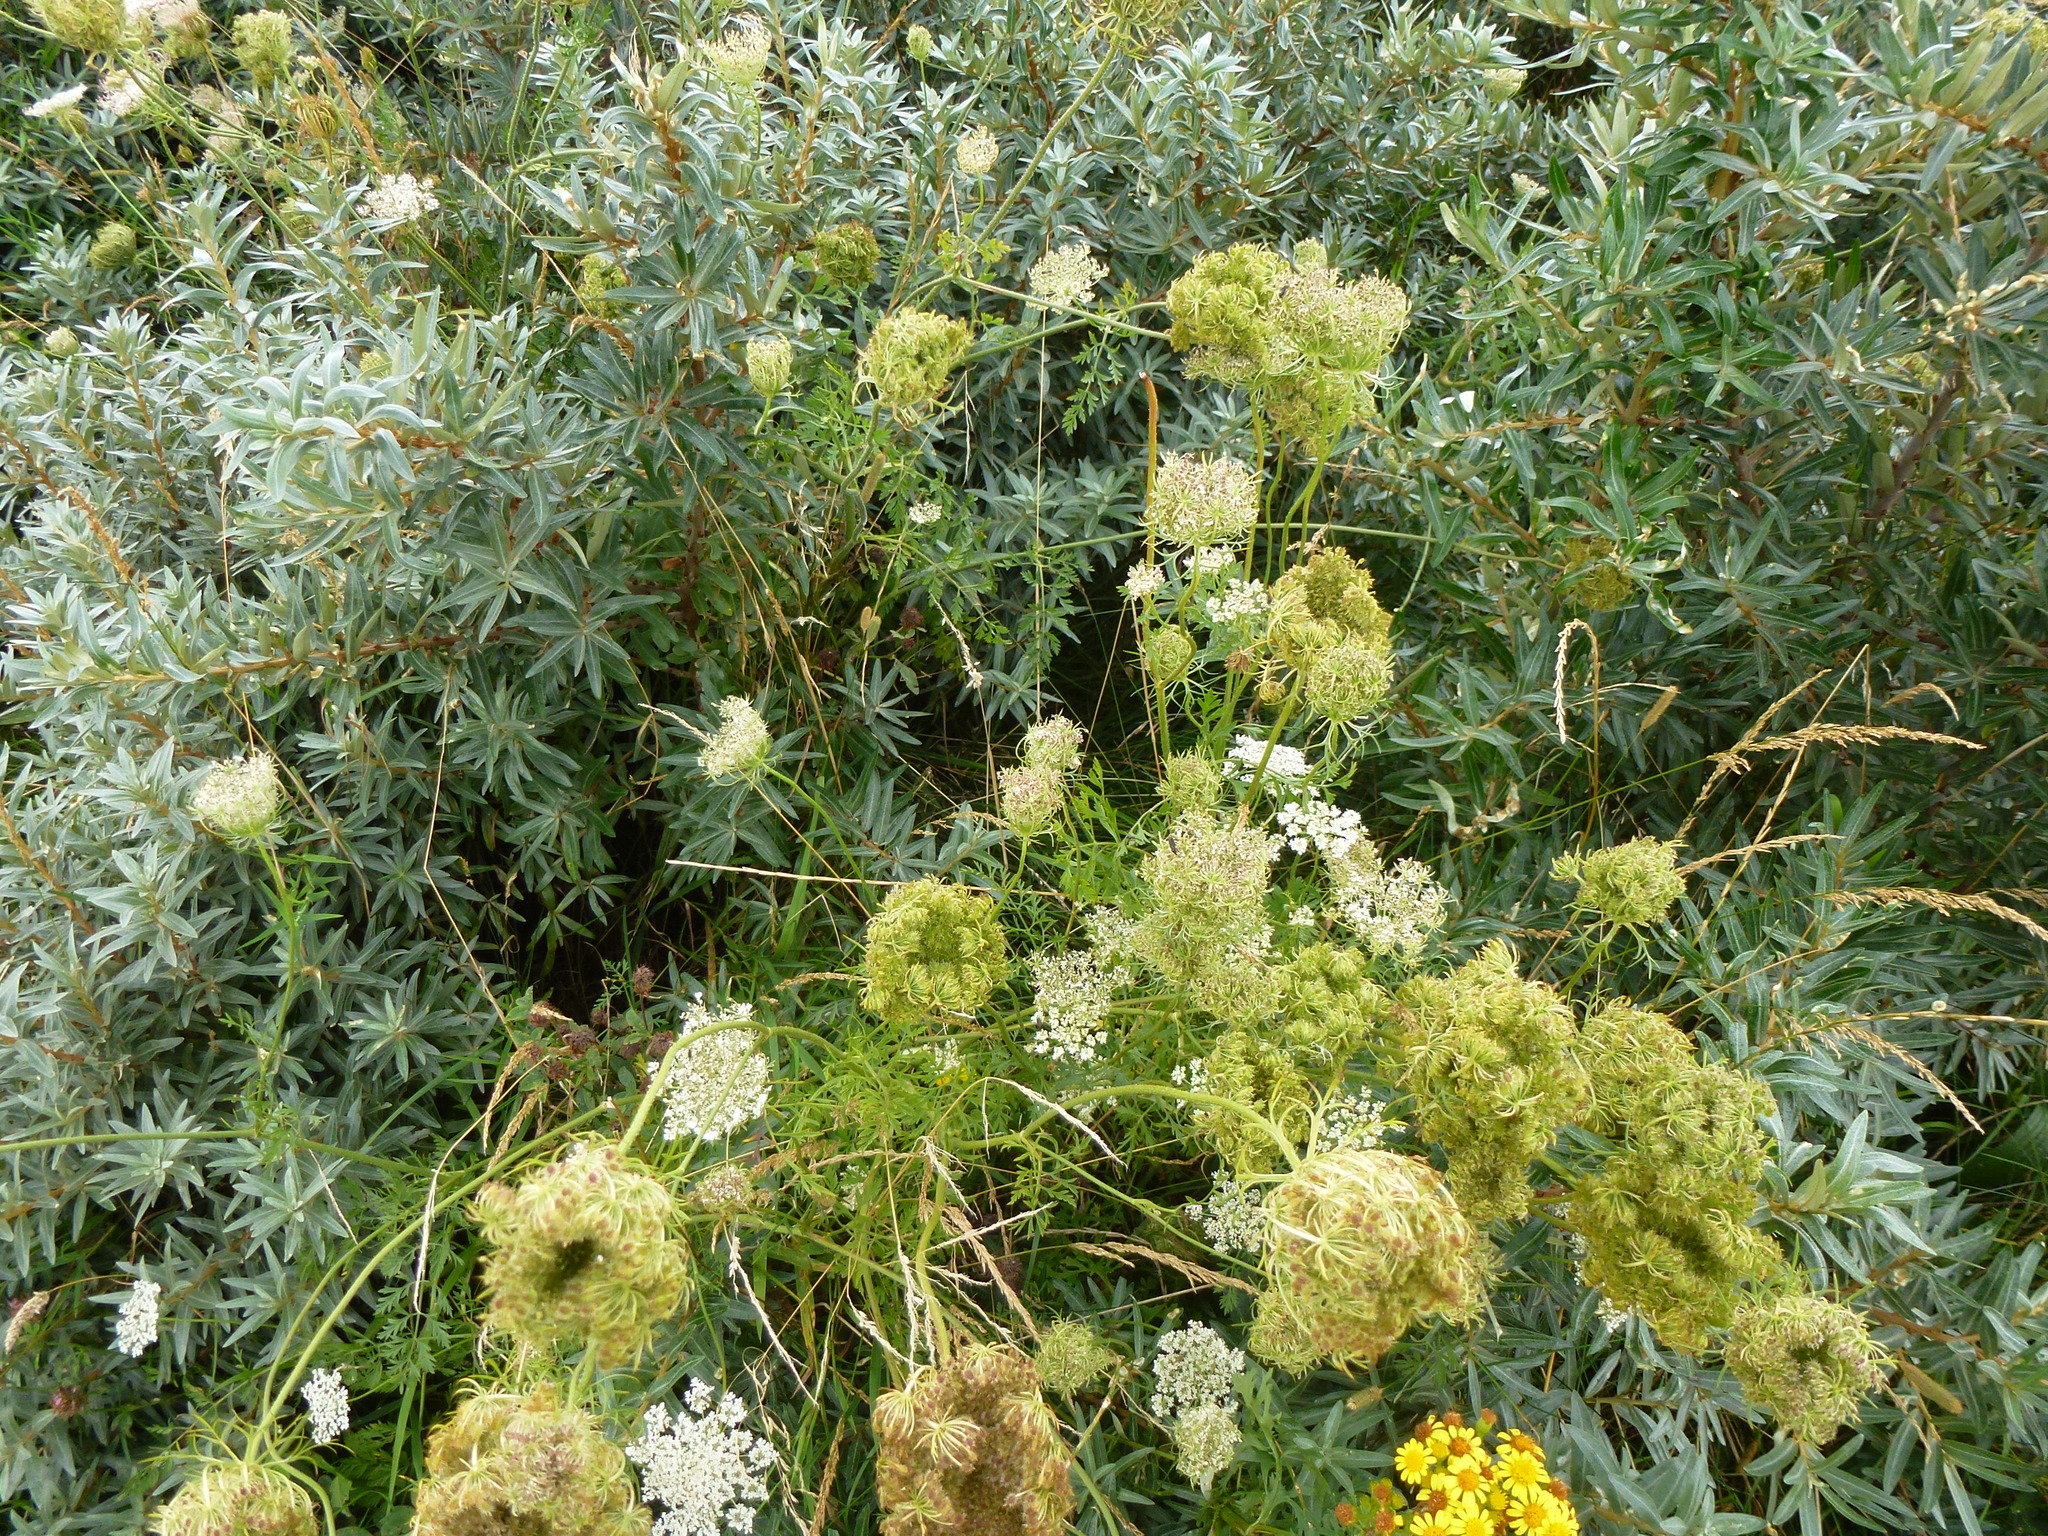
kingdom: Plantae
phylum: Tracheophyta
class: Magnoliopsida
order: Apiales
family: Apiaceae
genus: Daucus
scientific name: Daucus carota
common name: Wild carrot
